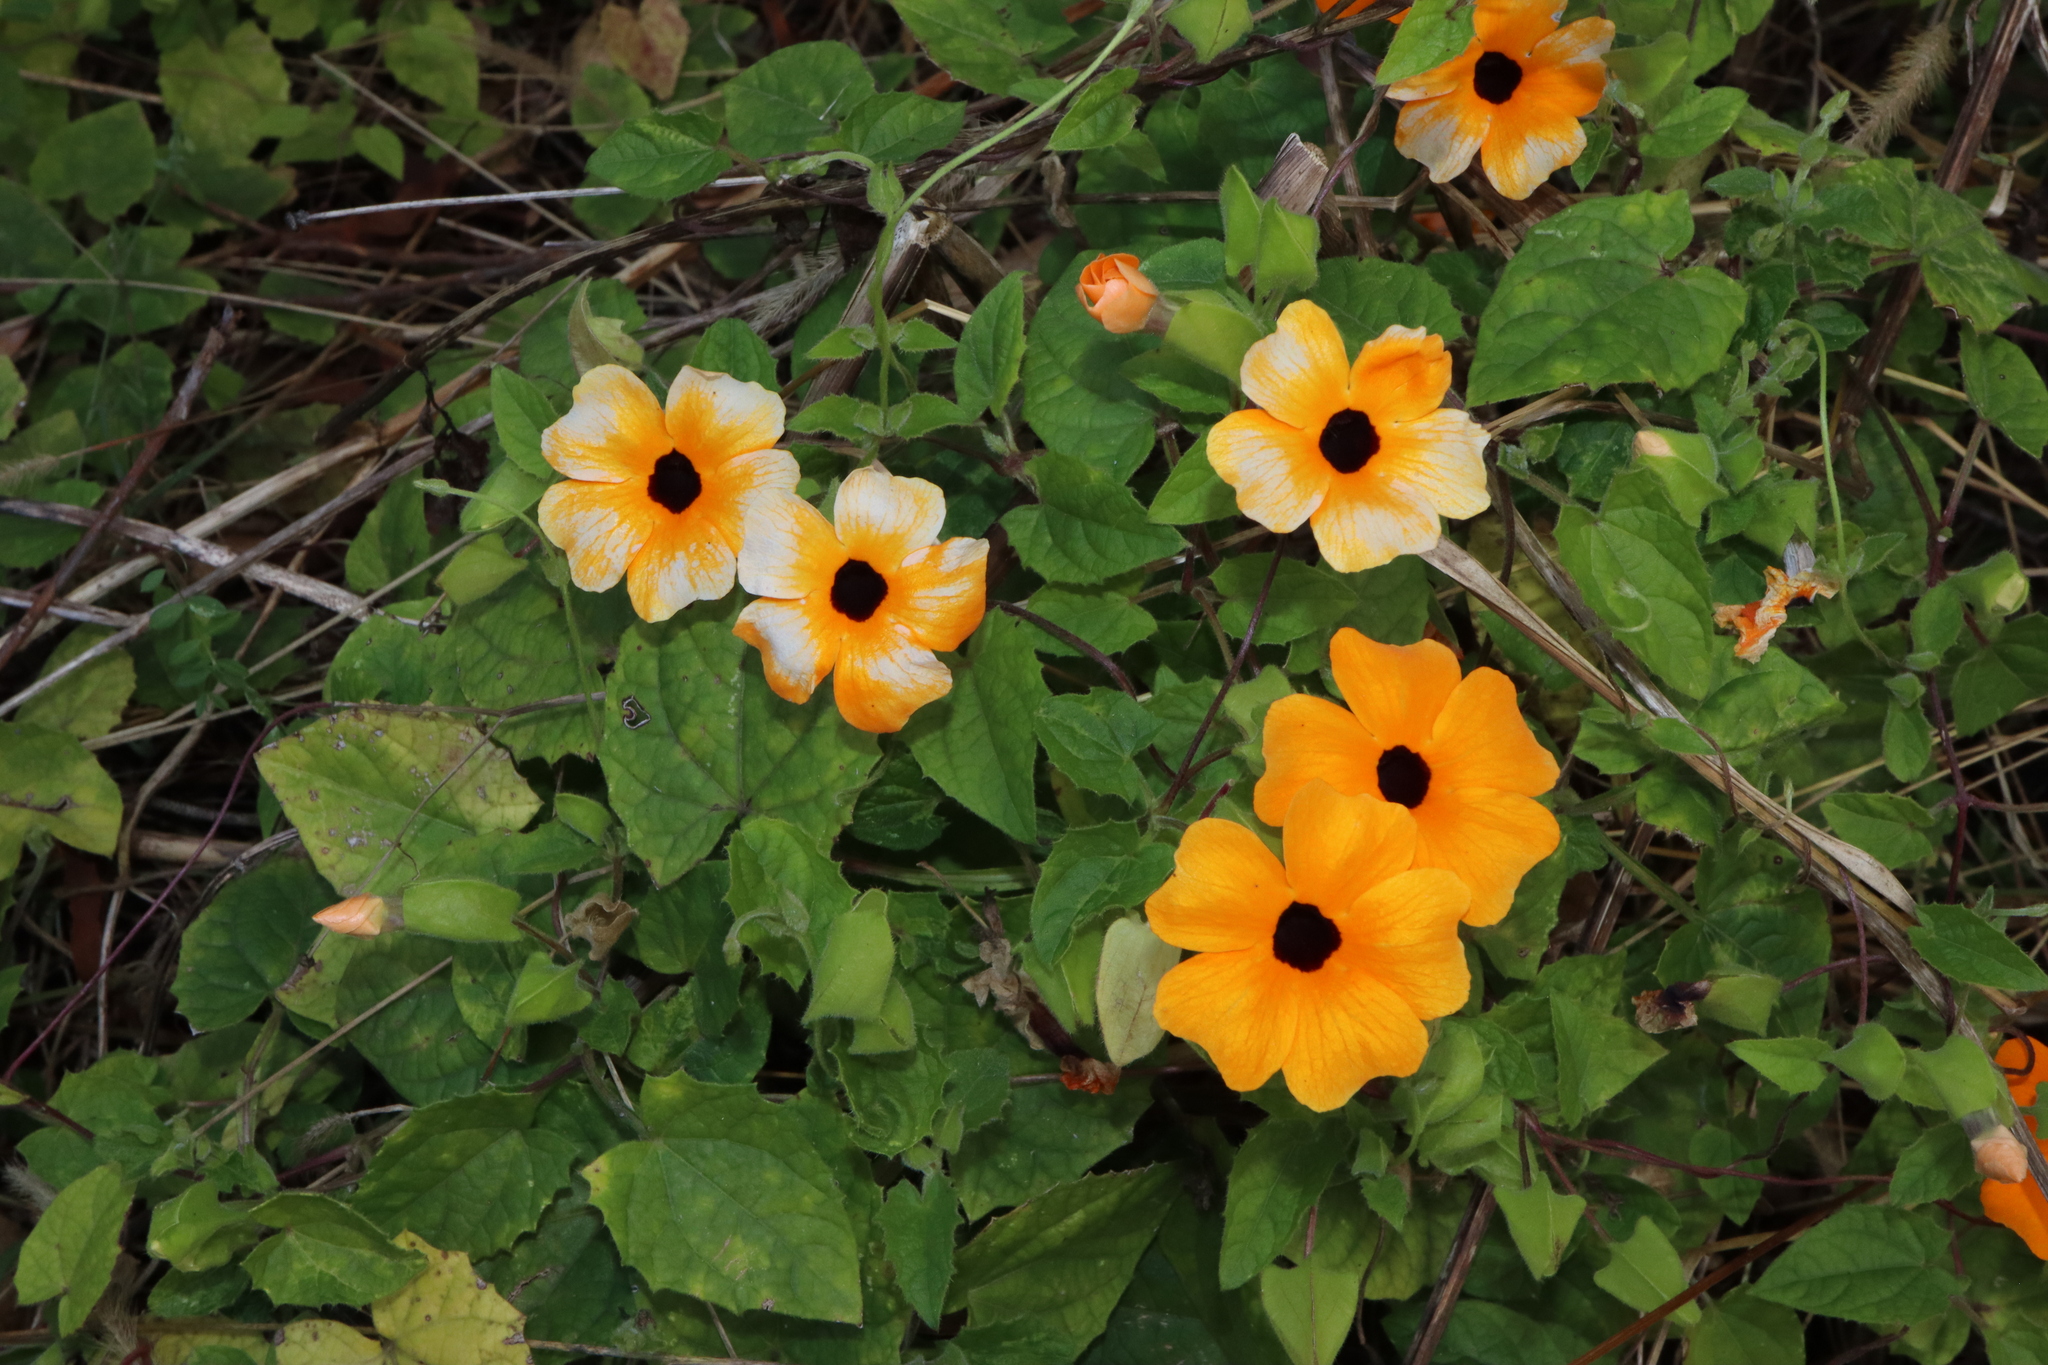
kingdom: Plantae
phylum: Tracheophyta
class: Magnoliopsida
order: Lamiales
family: Acanthaceae
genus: Thunbergia
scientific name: Thunbergia alata
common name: Blackeyed susan vine
